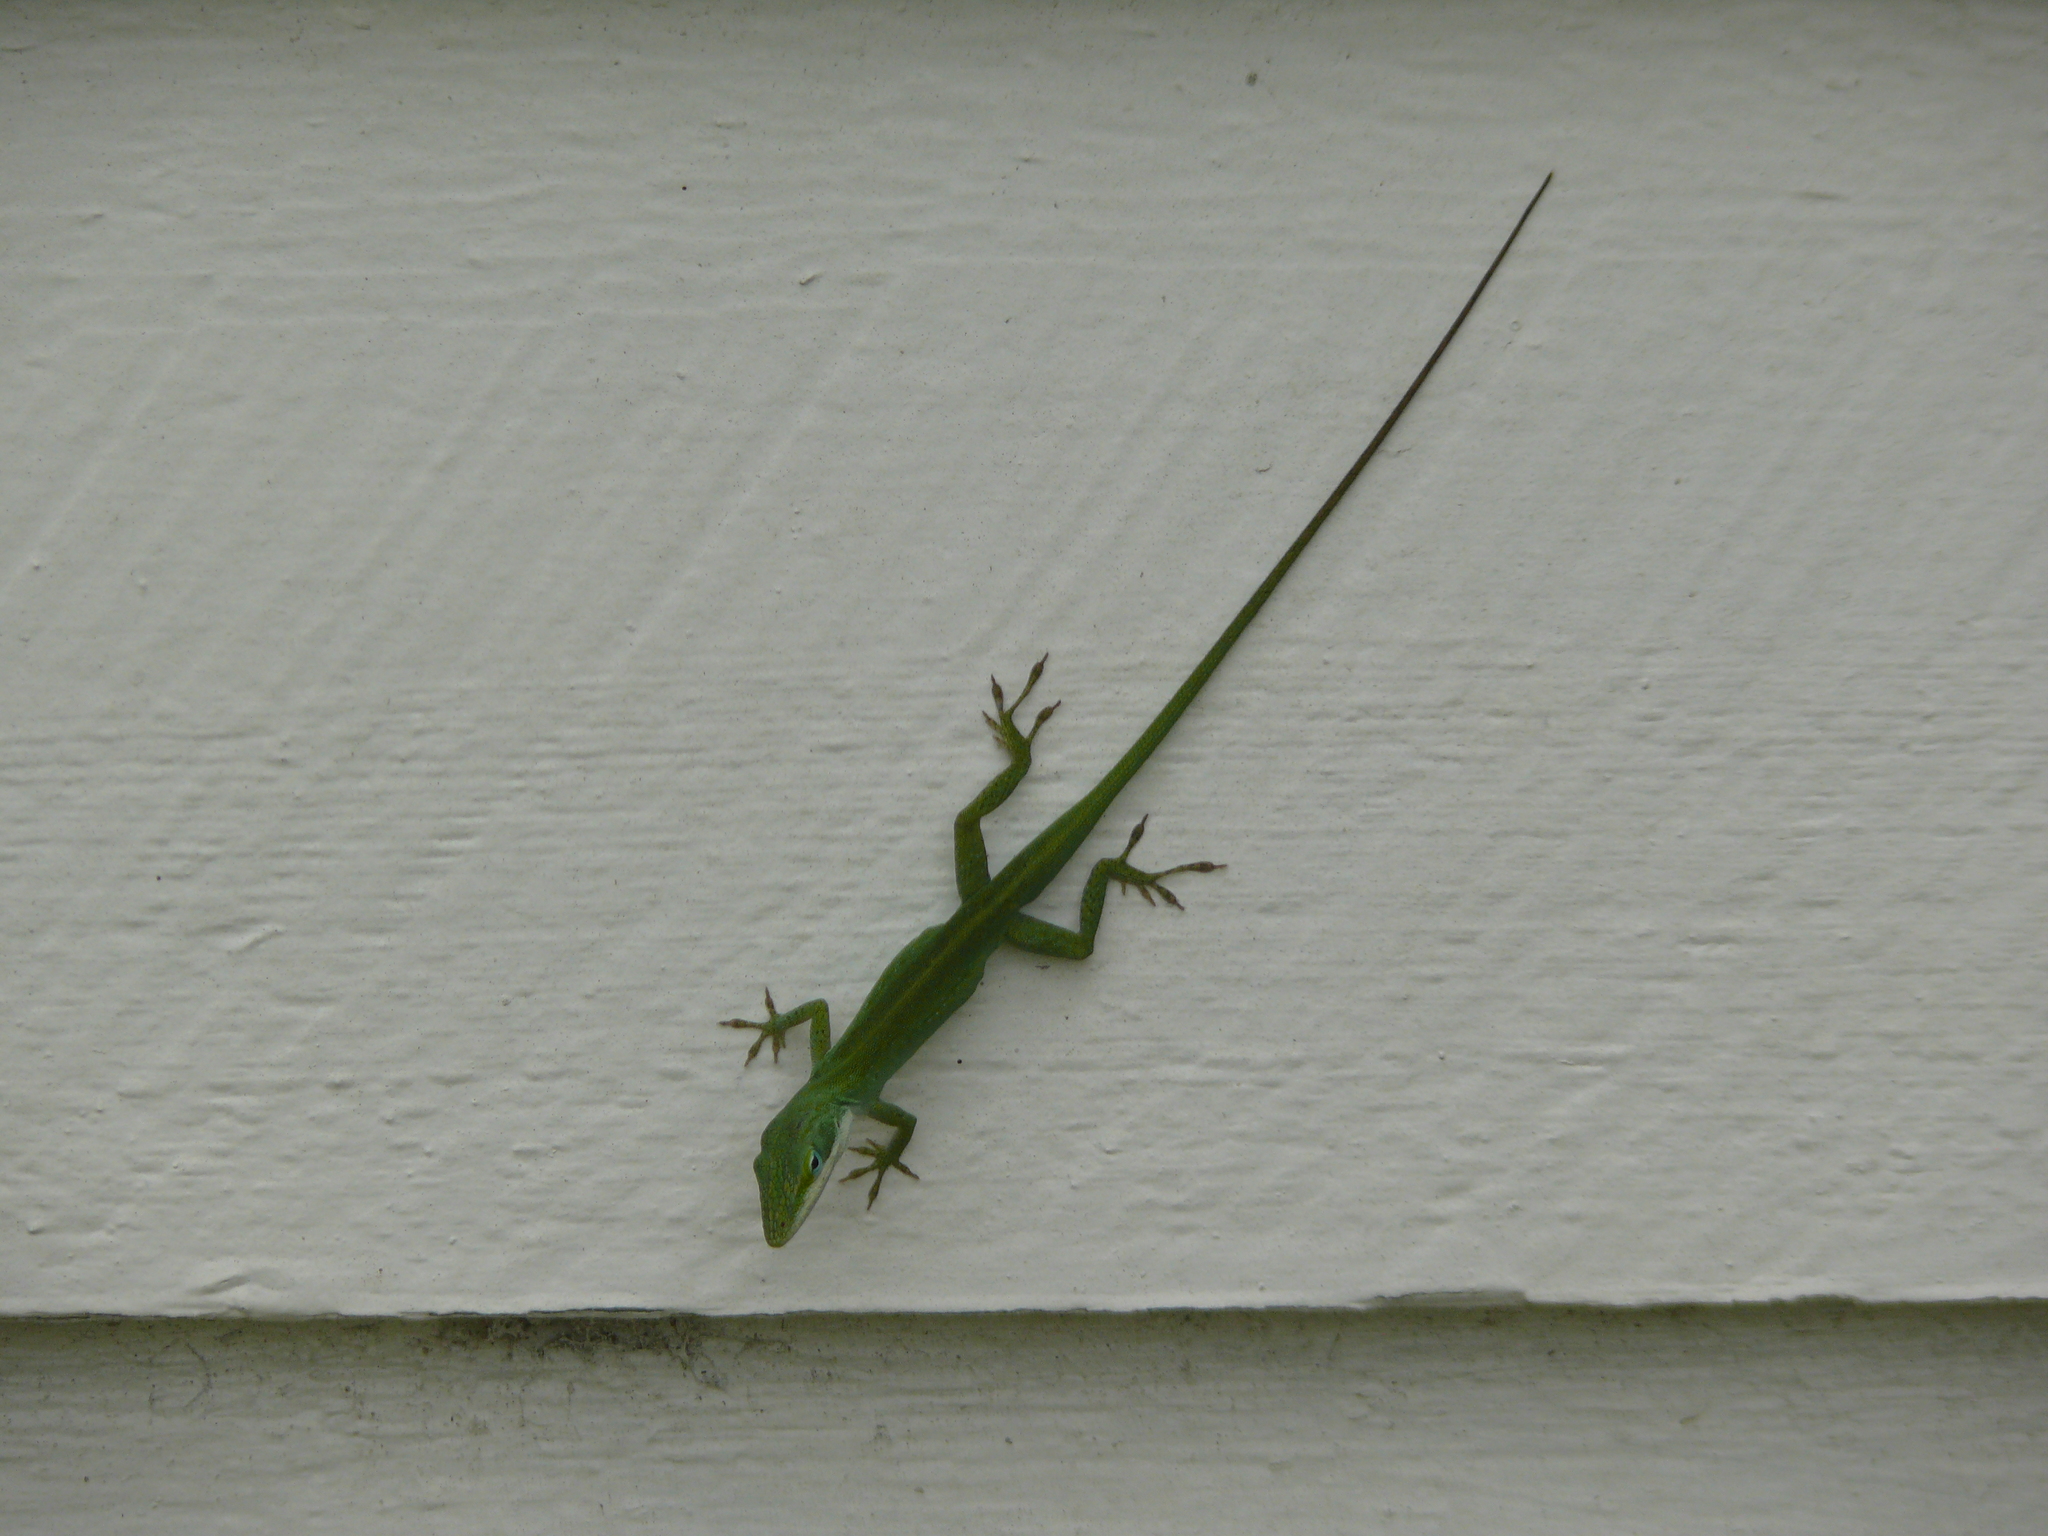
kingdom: Animalia
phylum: Chordata
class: Squamata
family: Dactyloidae
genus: Anolis
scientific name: Anolis carolinensis
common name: Green anole
